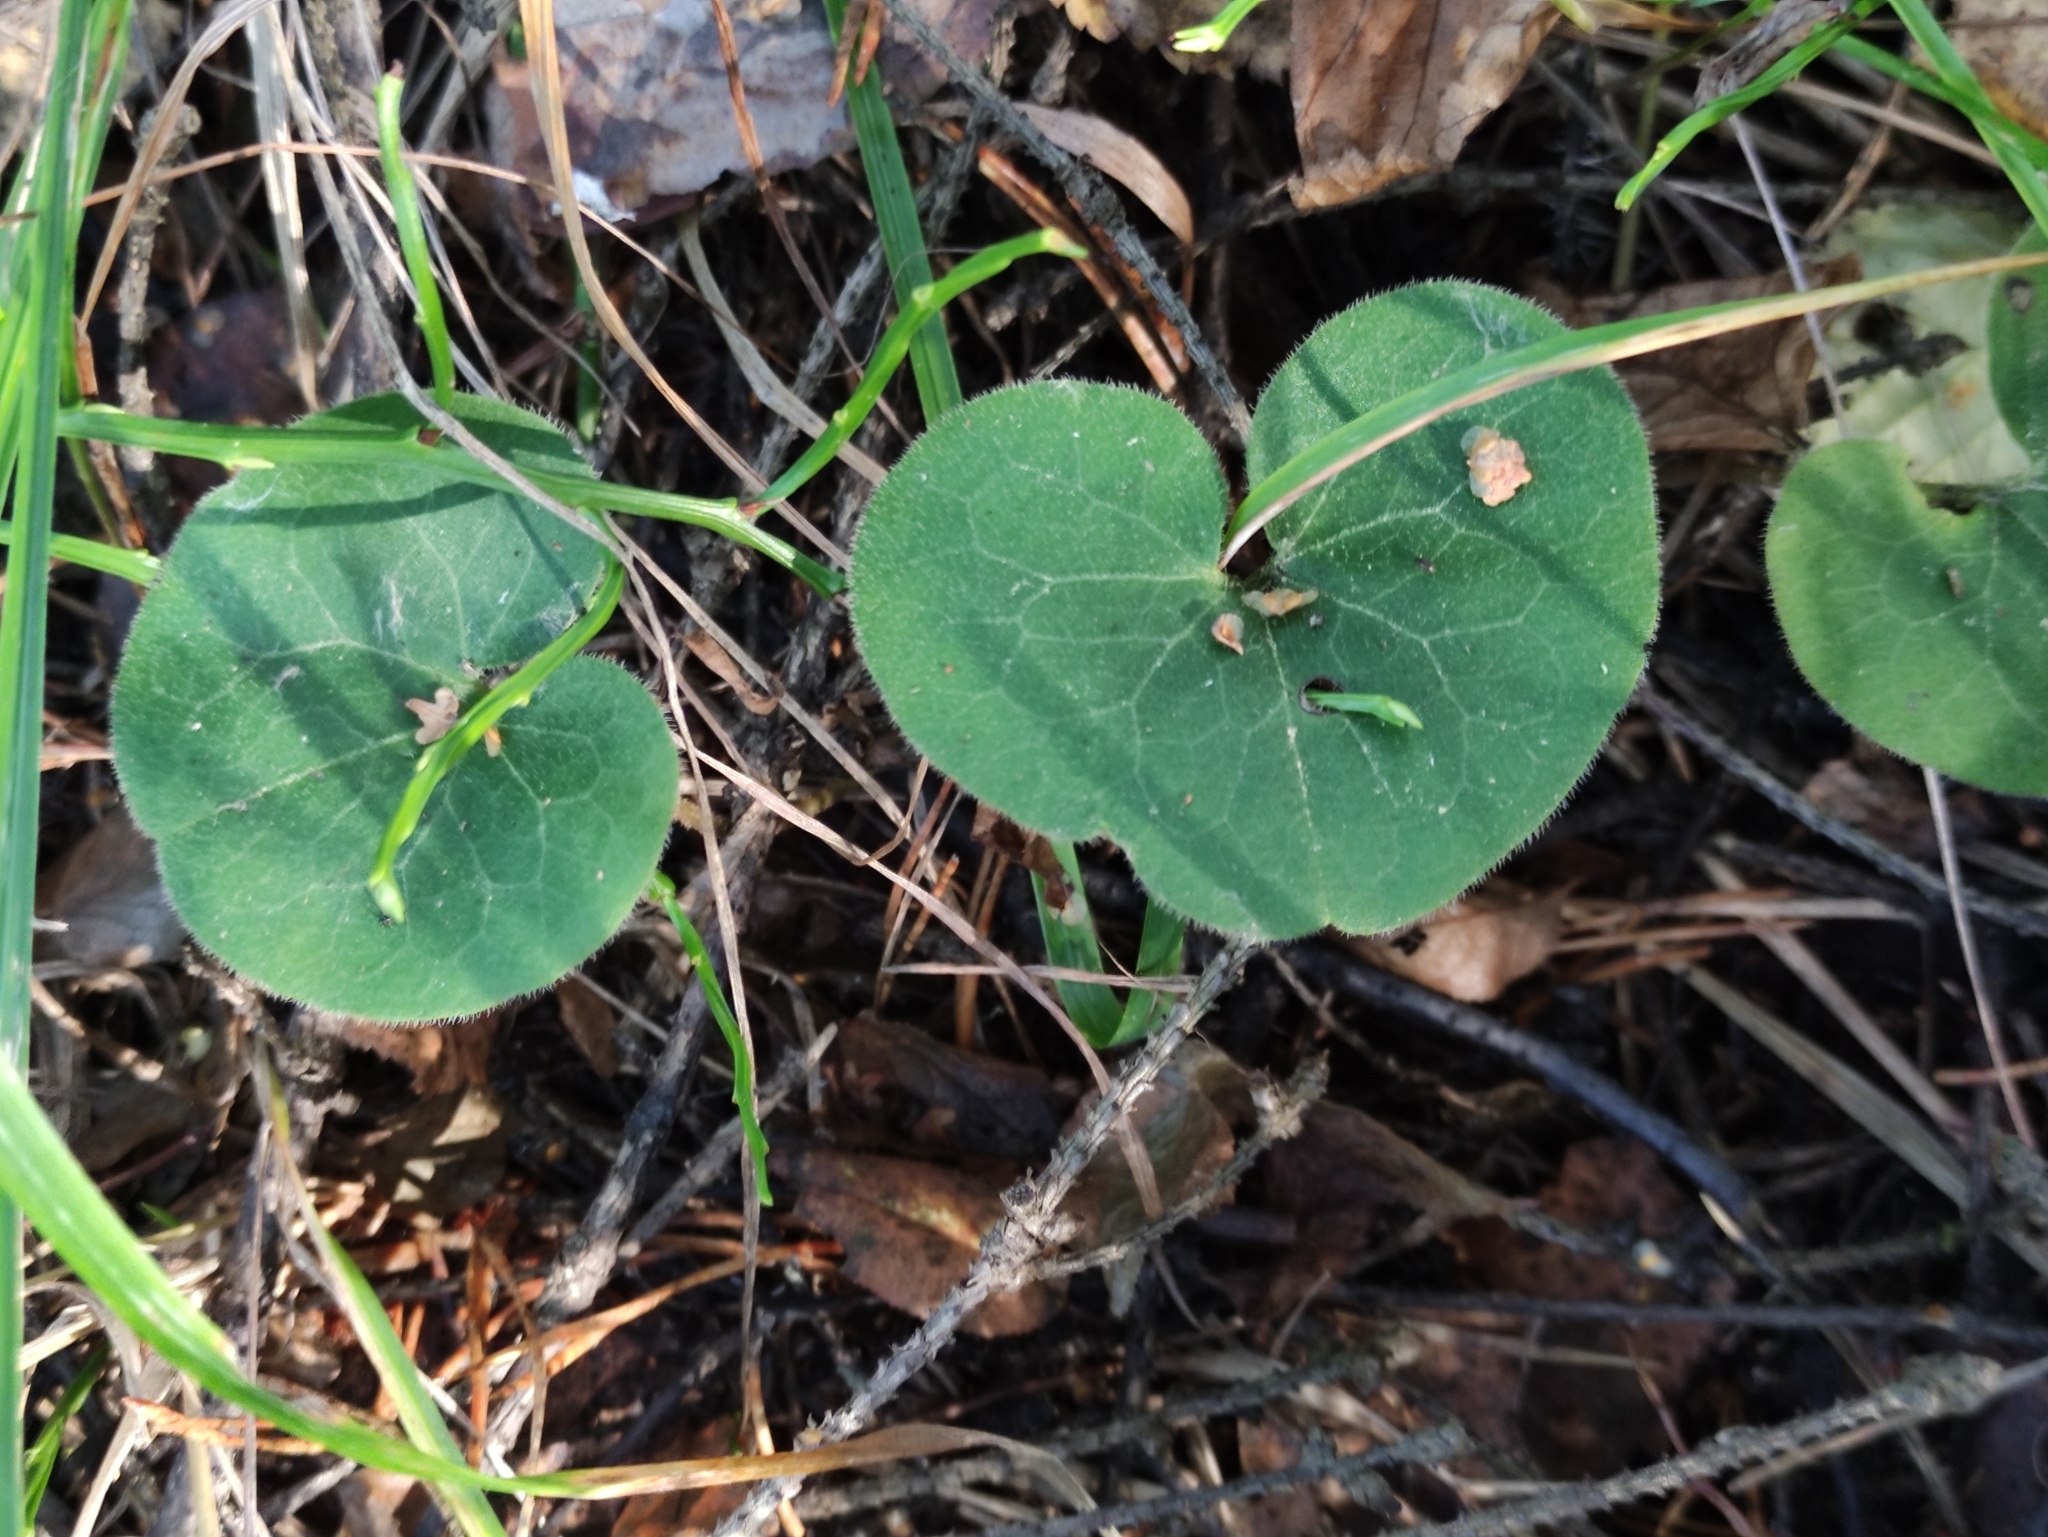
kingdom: Plantae
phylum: Tracheophyta
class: Magnoliopsida
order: Piperales
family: Aristolochiaceae
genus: Asarum
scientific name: Asarum europaeum
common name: Asarabacca
